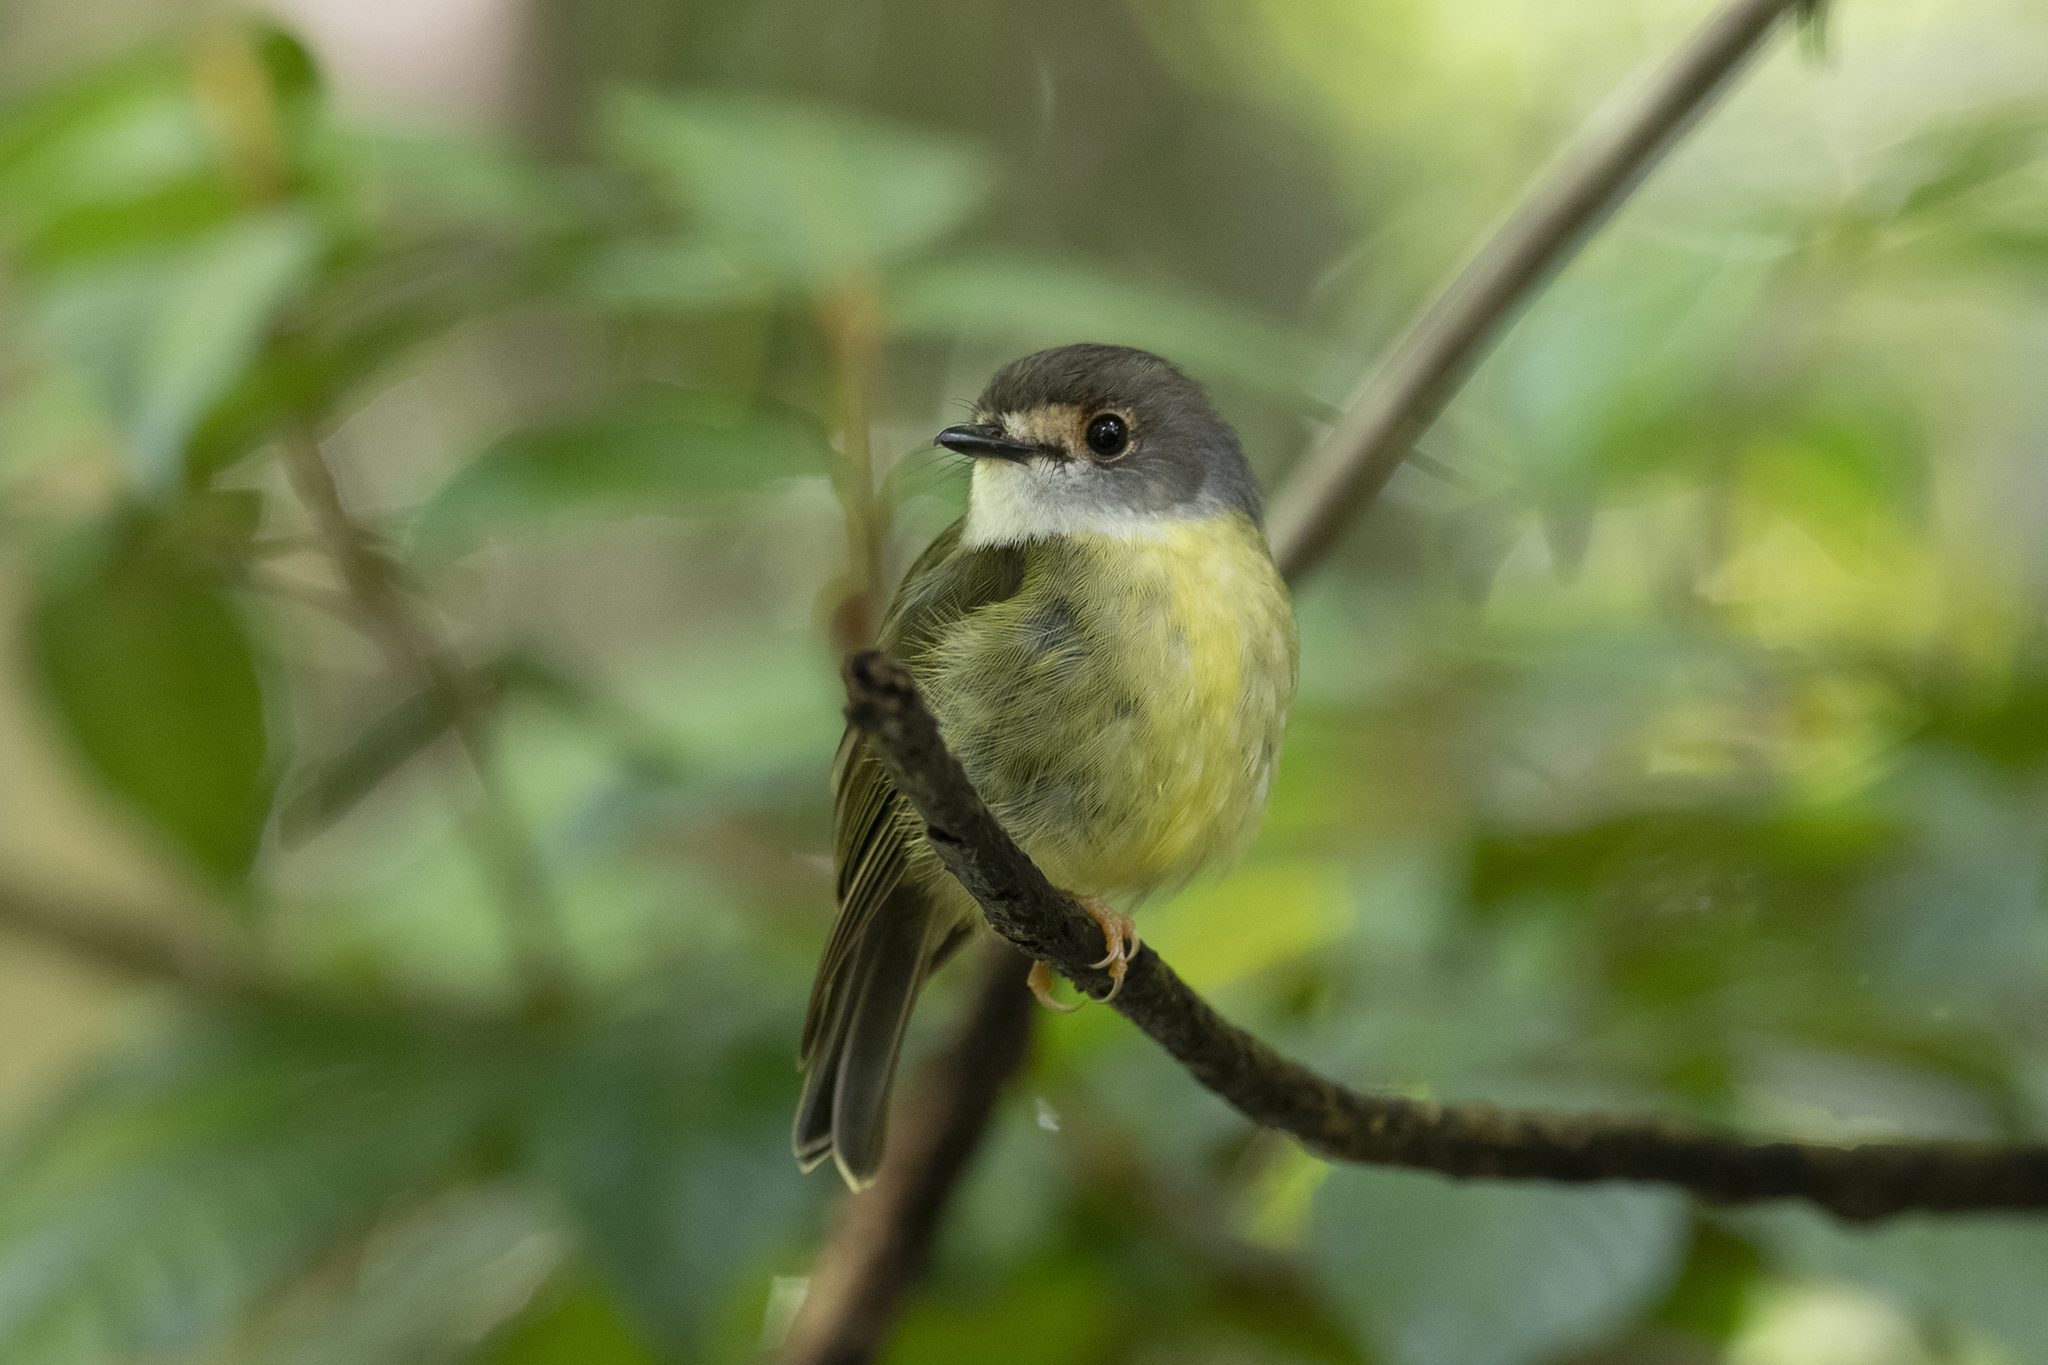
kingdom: Animalia
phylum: Chordata
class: Aves
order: Passeriformes
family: Petroicidae
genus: Eopsaltria
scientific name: Eopsaltria
